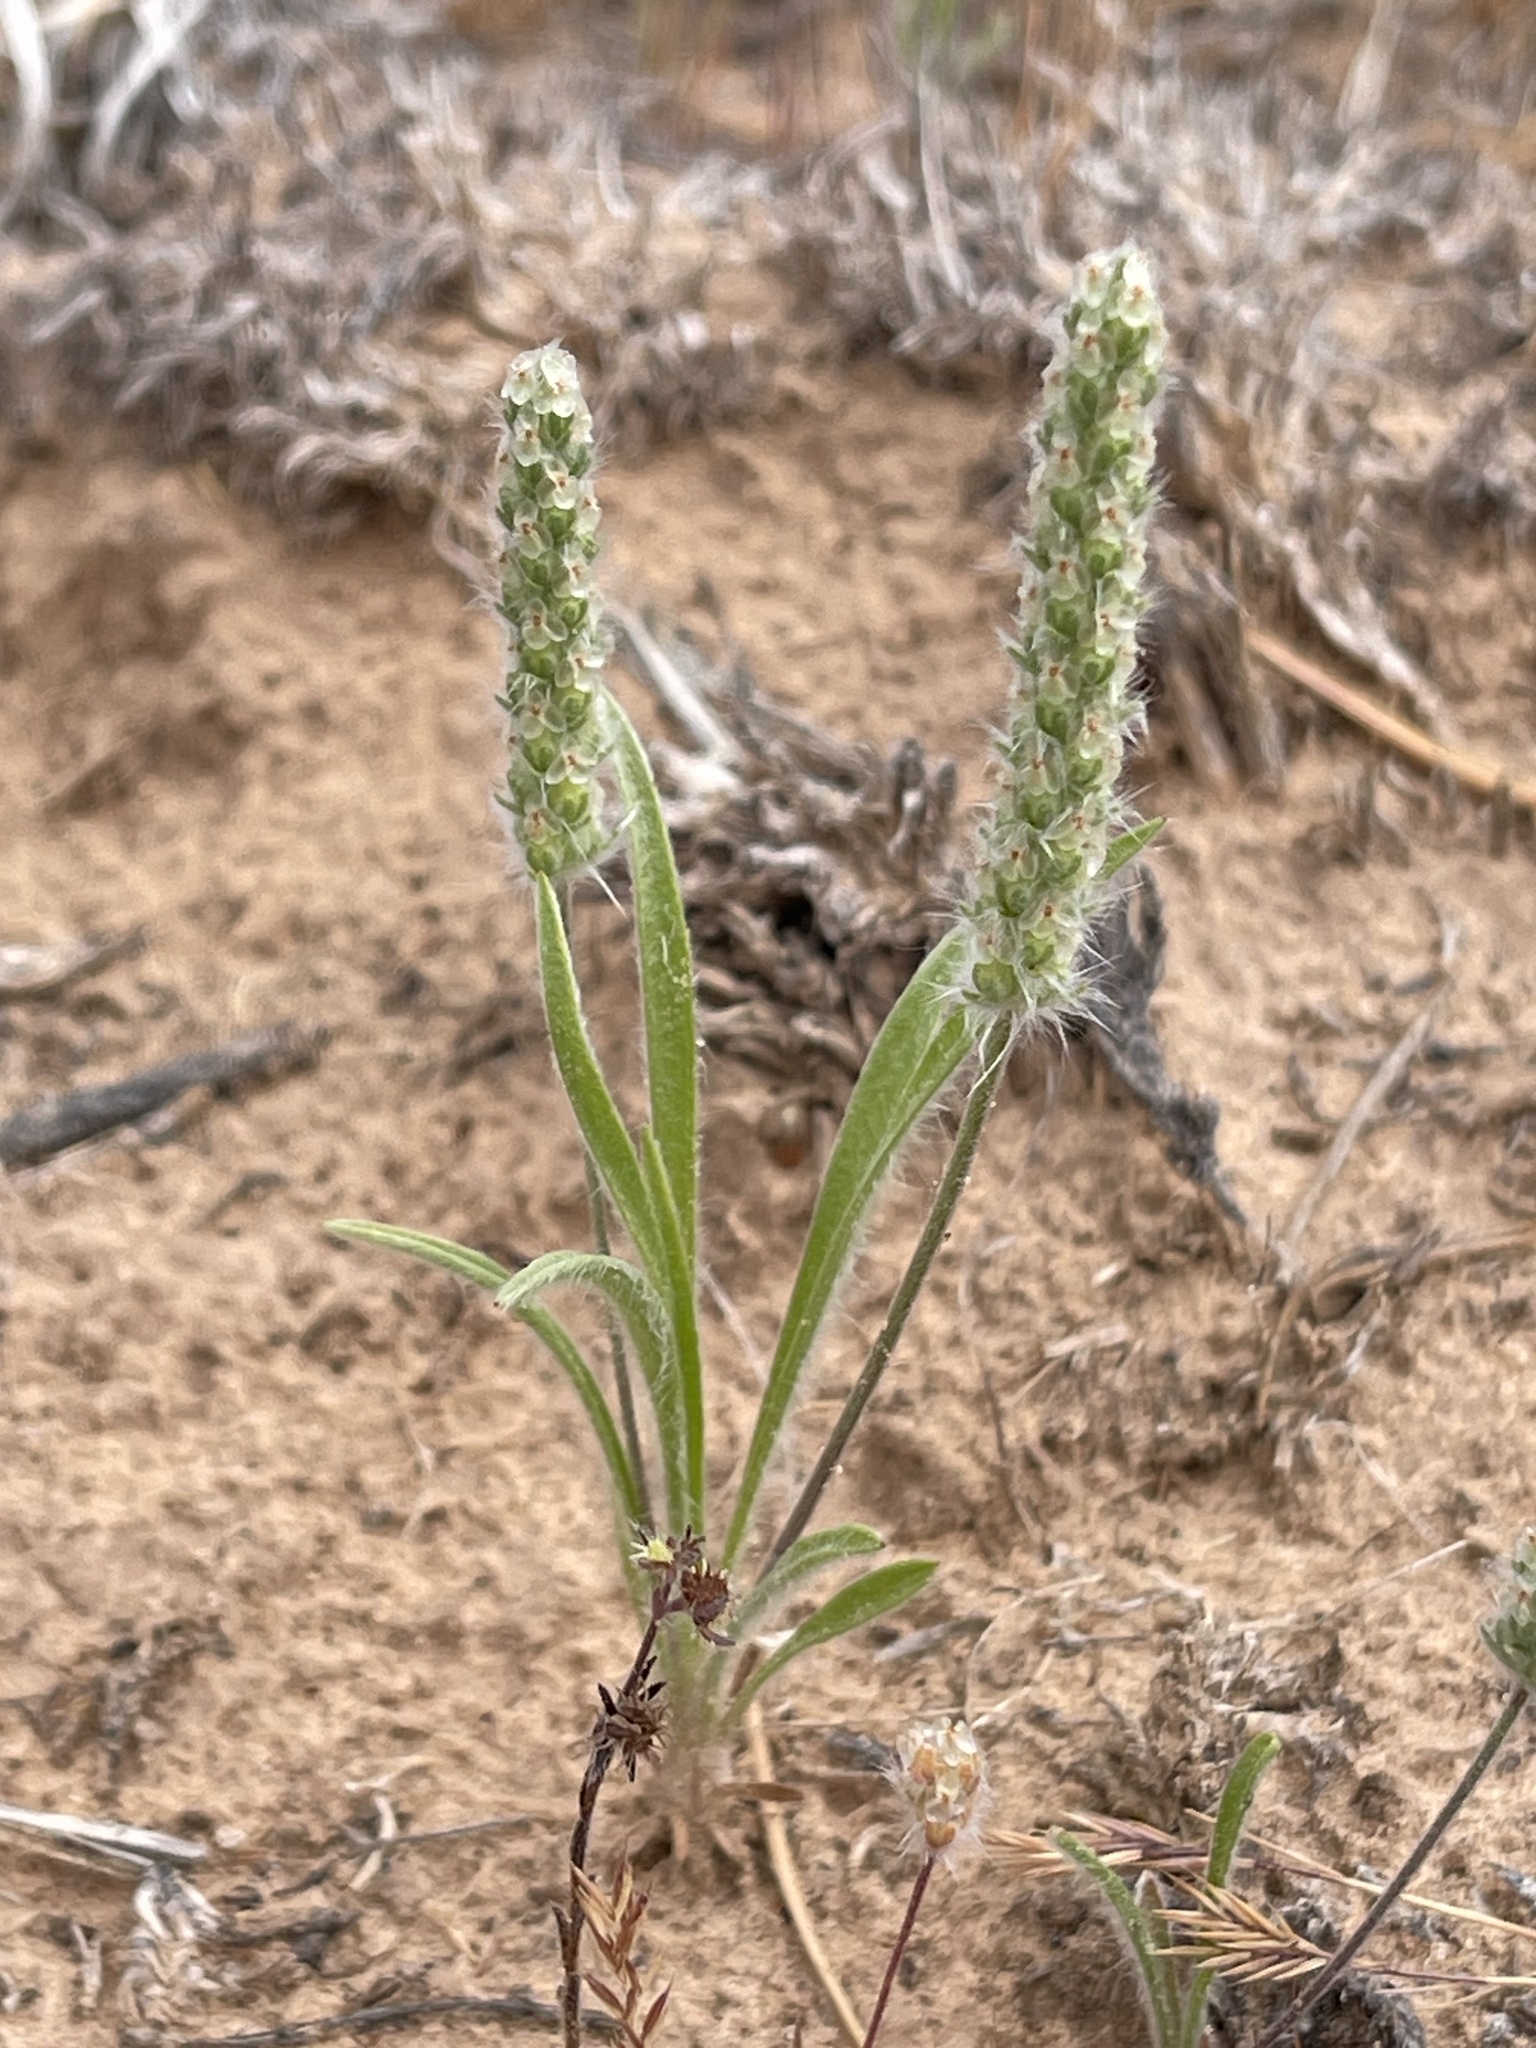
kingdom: Plantae
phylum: Tracheophyta
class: Magnoliopsida
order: Lamiales
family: Plantaginaceae
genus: Plantago
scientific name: Plantago patagonica
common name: Patagonia indian-wheat
